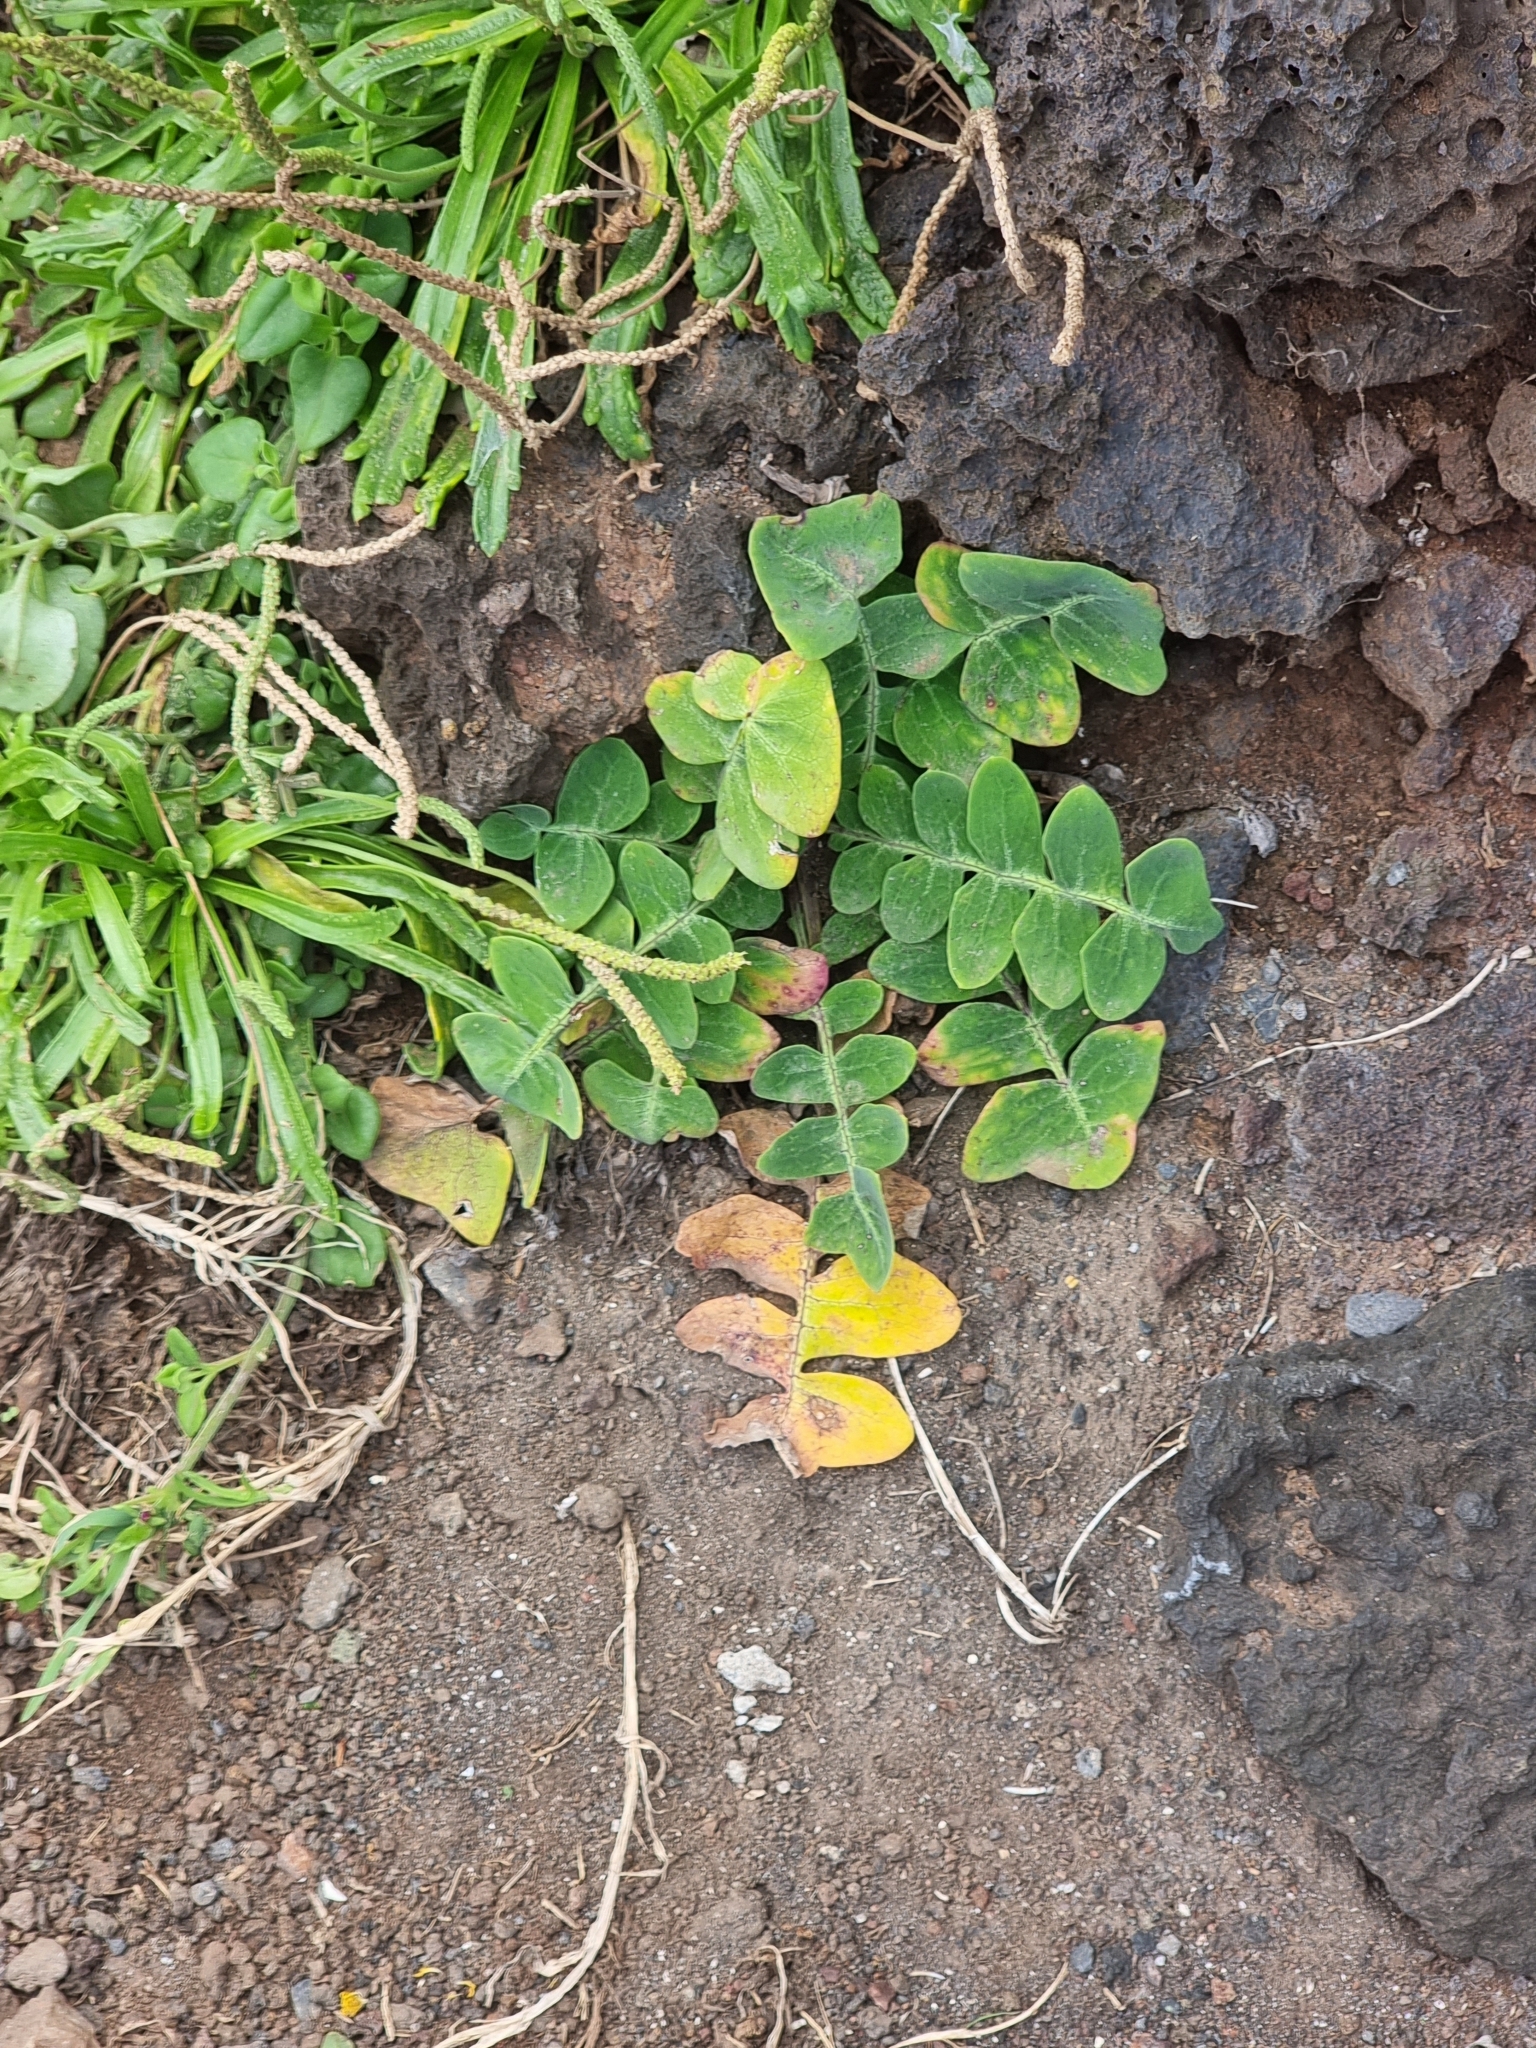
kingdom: Plantae
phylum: Tracheophyta
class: Magnoliopsida
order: Asterales
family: Asteraceae
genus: Sonchus
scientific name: Sonchus latifolius
